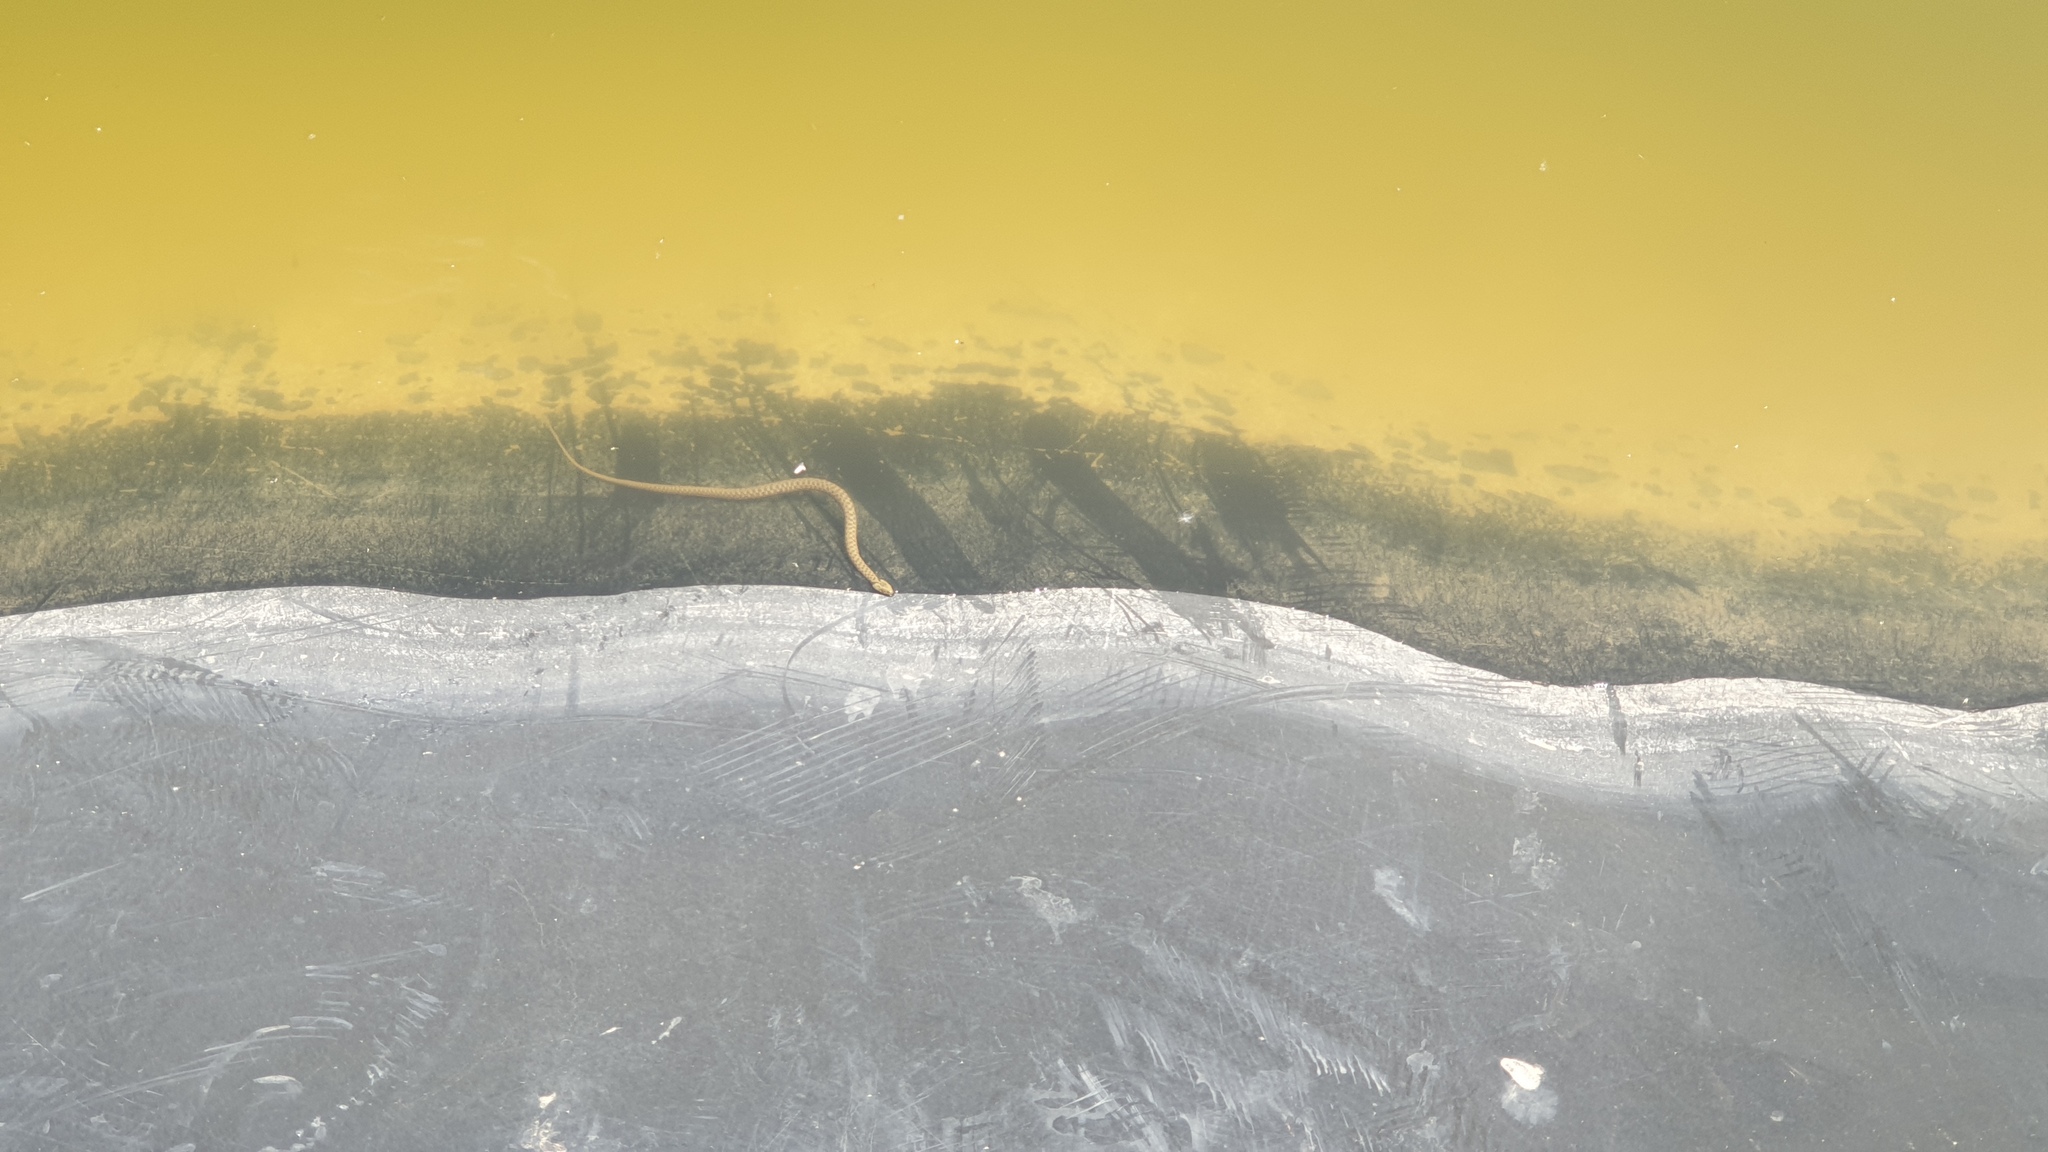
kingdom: Animalia
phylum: Chordata
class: Squamata
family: Colubridae
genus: Natrix
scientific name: Natrix tessellata
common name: Dice snake
